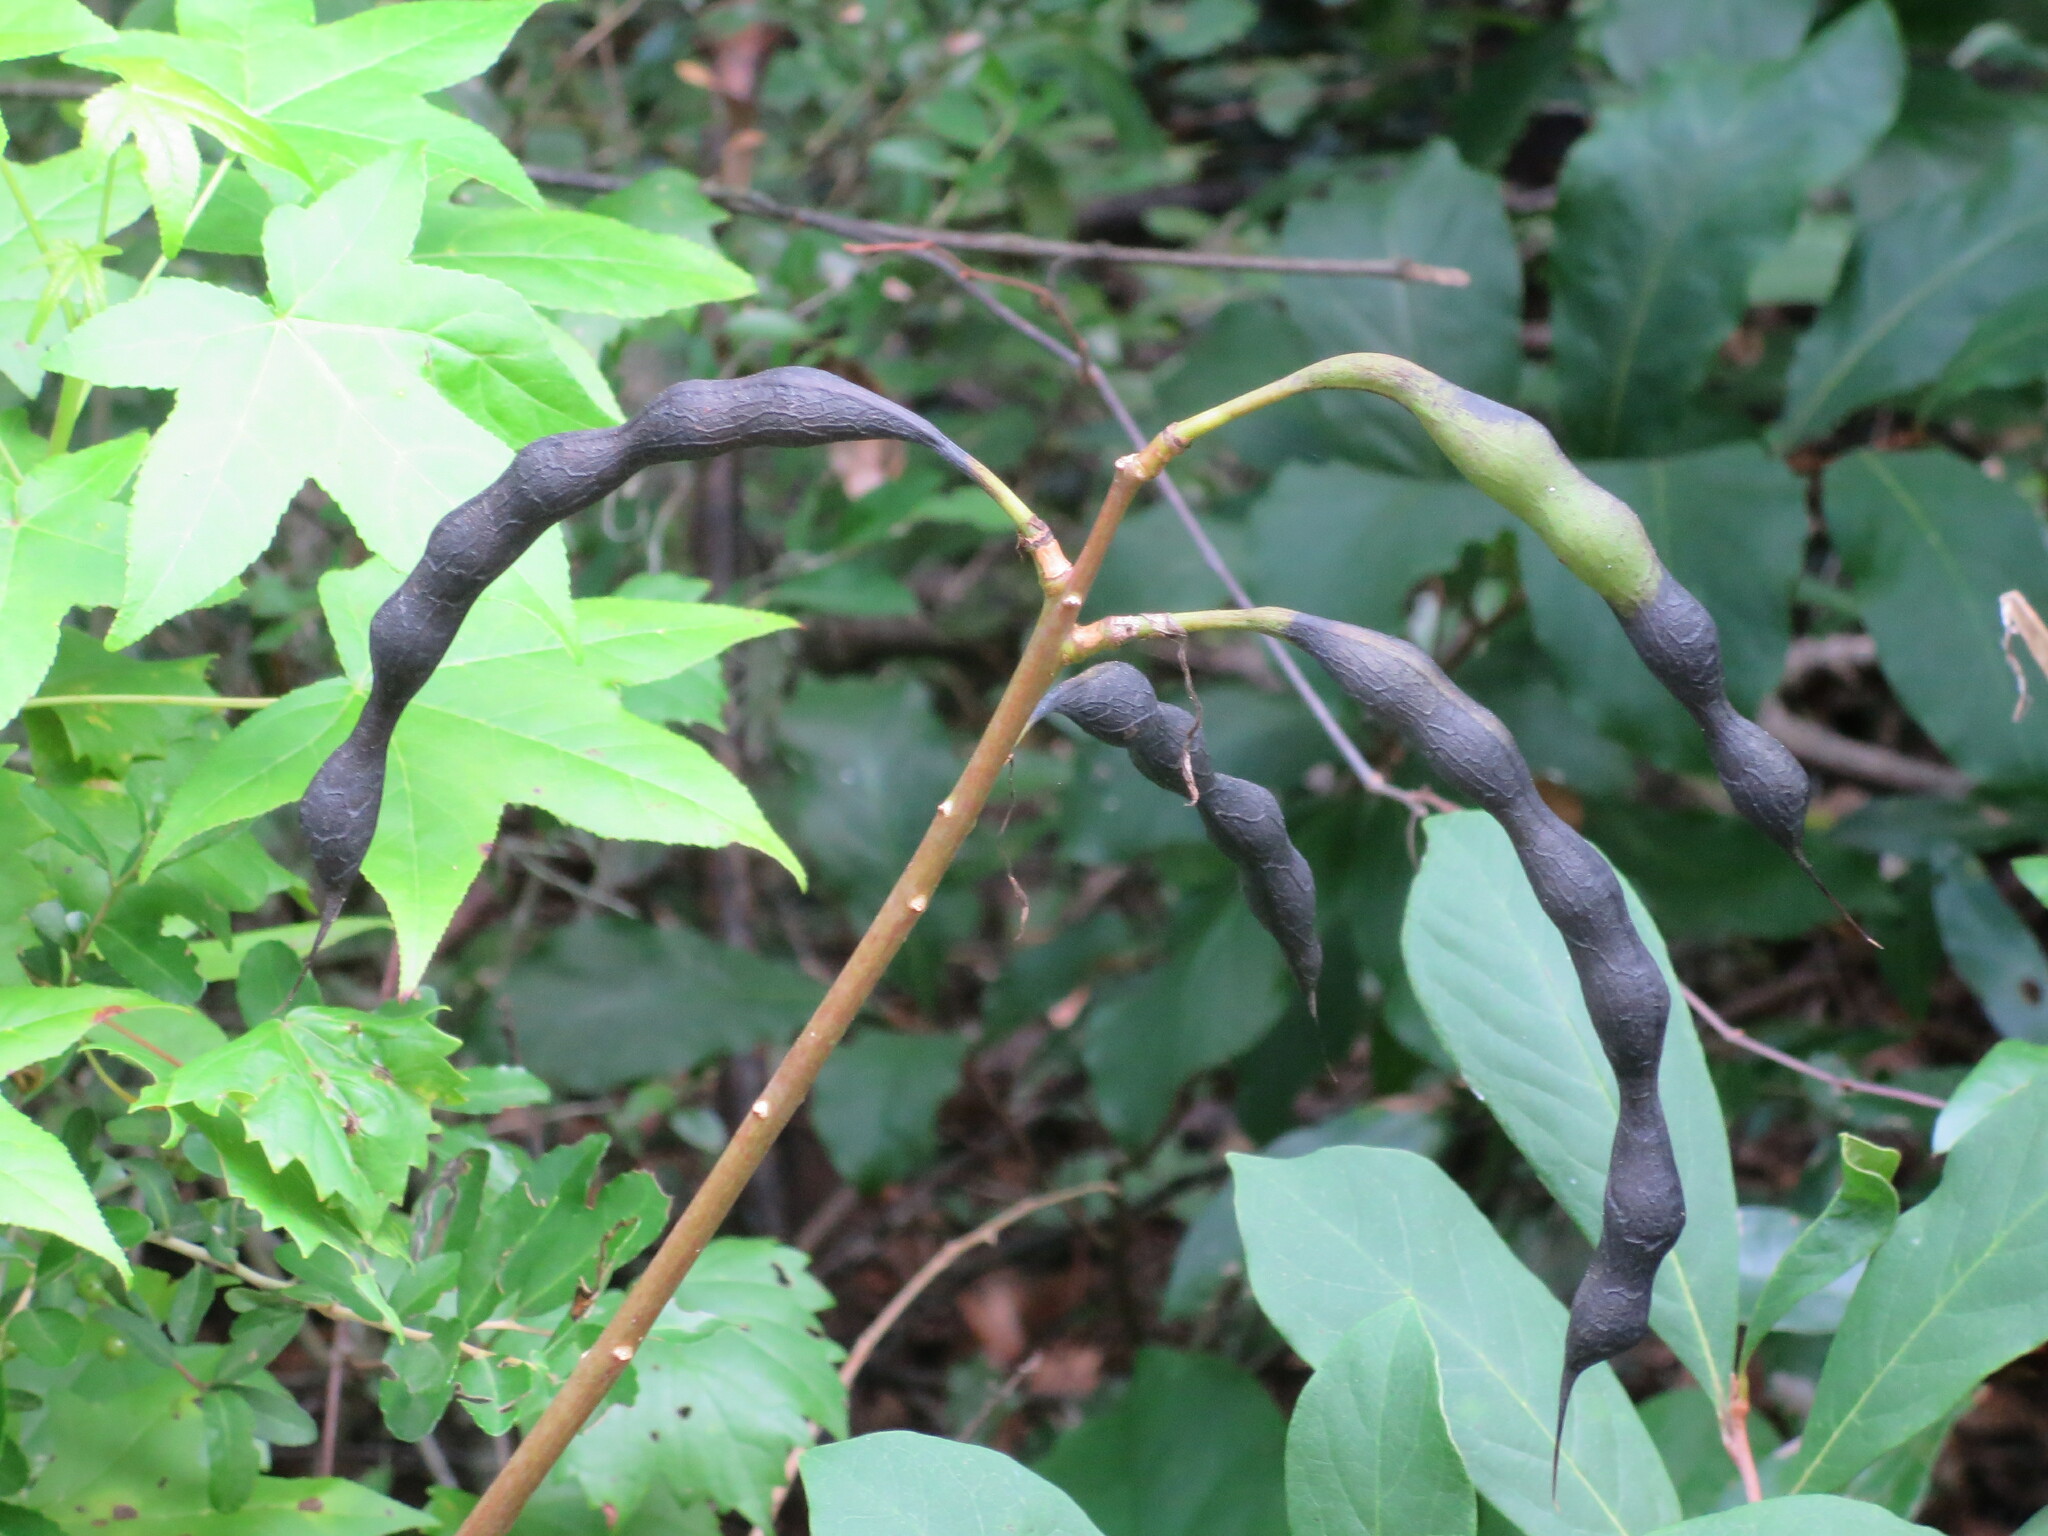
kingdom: Plantae
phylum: Tracheophyta
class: Magnoliopsida
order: Fabales
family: Fabaceae
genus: Erythrina
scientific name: Erythrina herbacea
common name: Coral-bean
